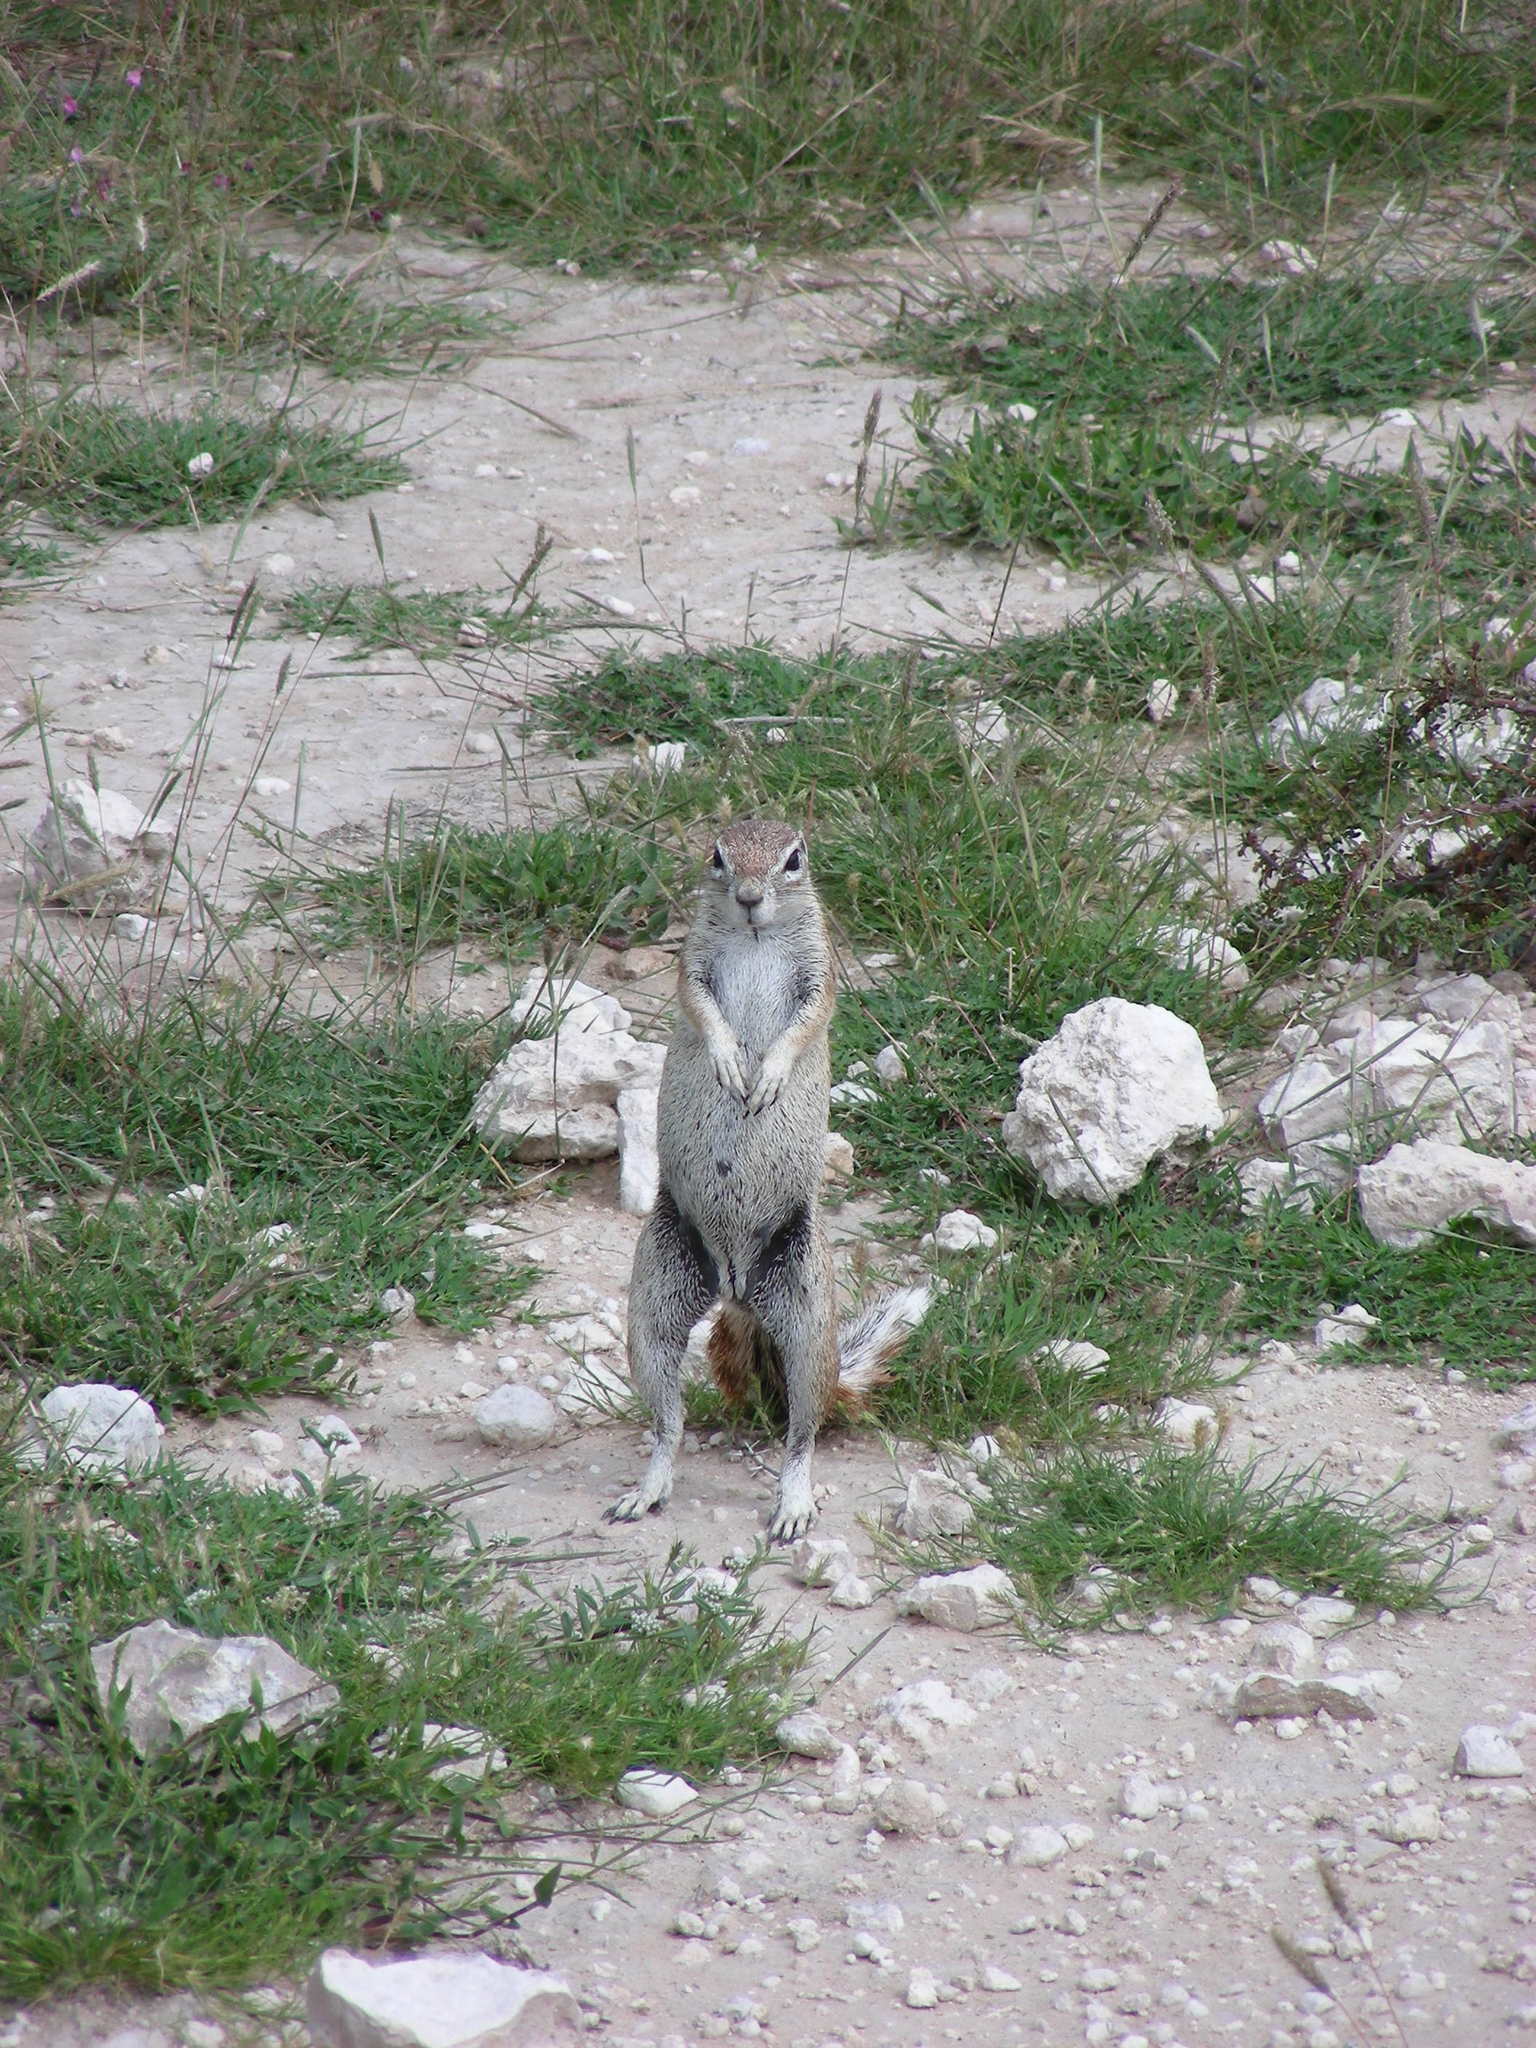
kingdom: Animalia
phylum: Chordata
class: Mammalia
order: Rodentia
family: Sciuridae
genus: Xerus
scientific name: Xerus inauris
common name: South african ground squirrel
